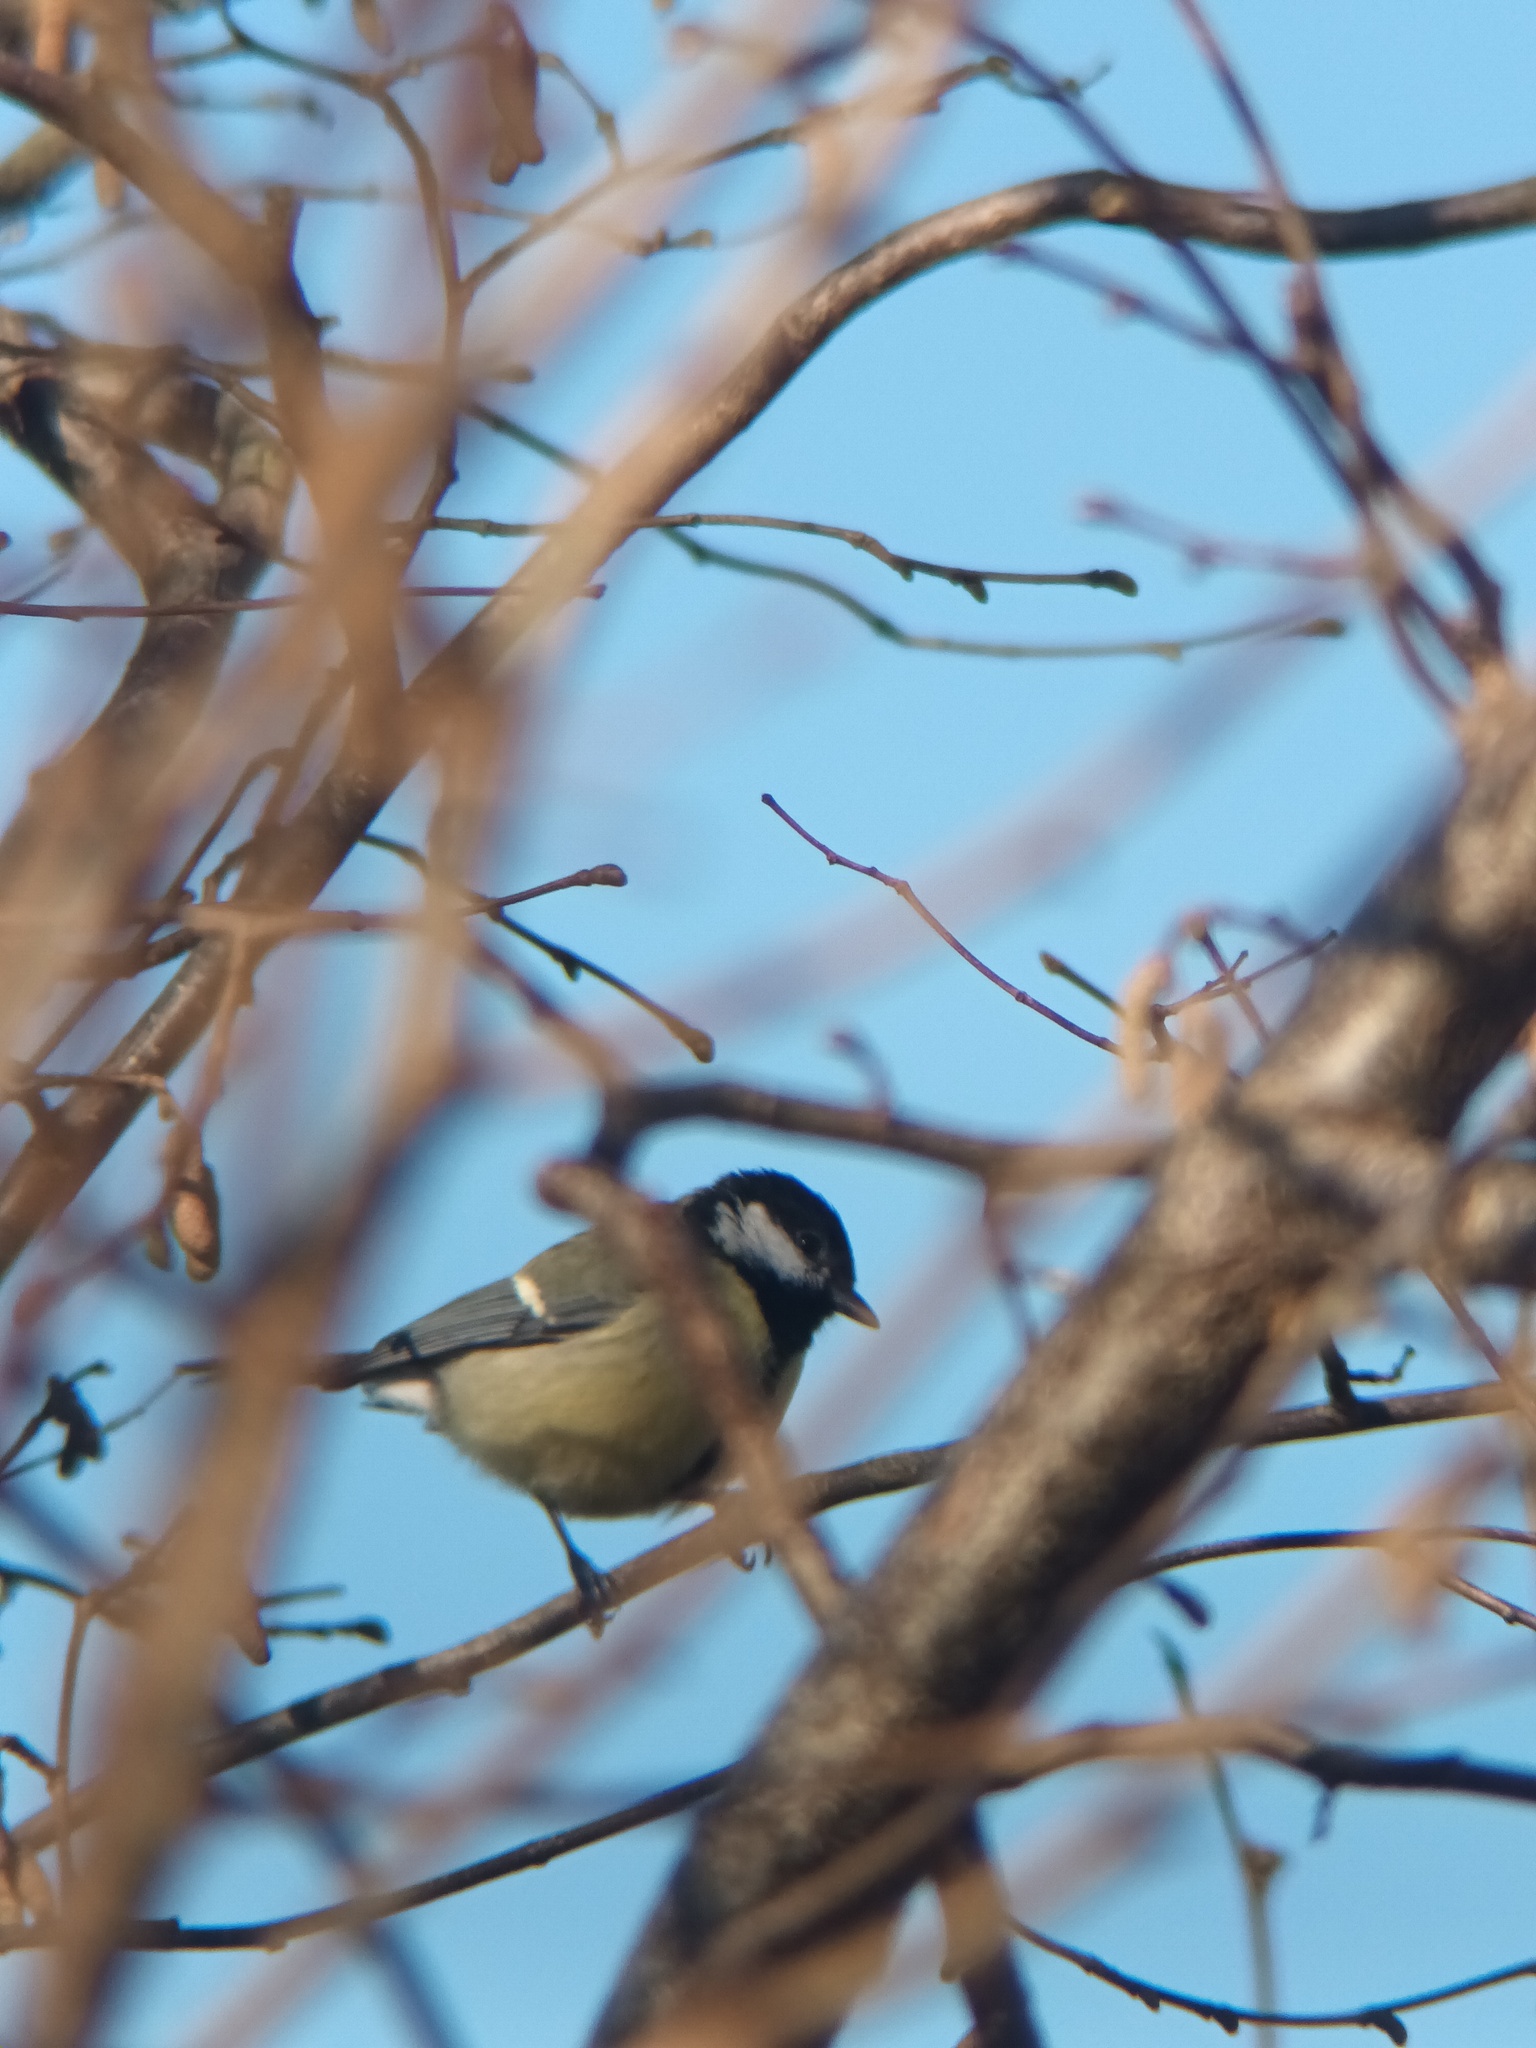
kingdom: Animalia
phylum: Chordata
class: Aves
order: Passeriformes
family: Paridae
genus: Parus
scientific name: Parus major
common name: Great tit
